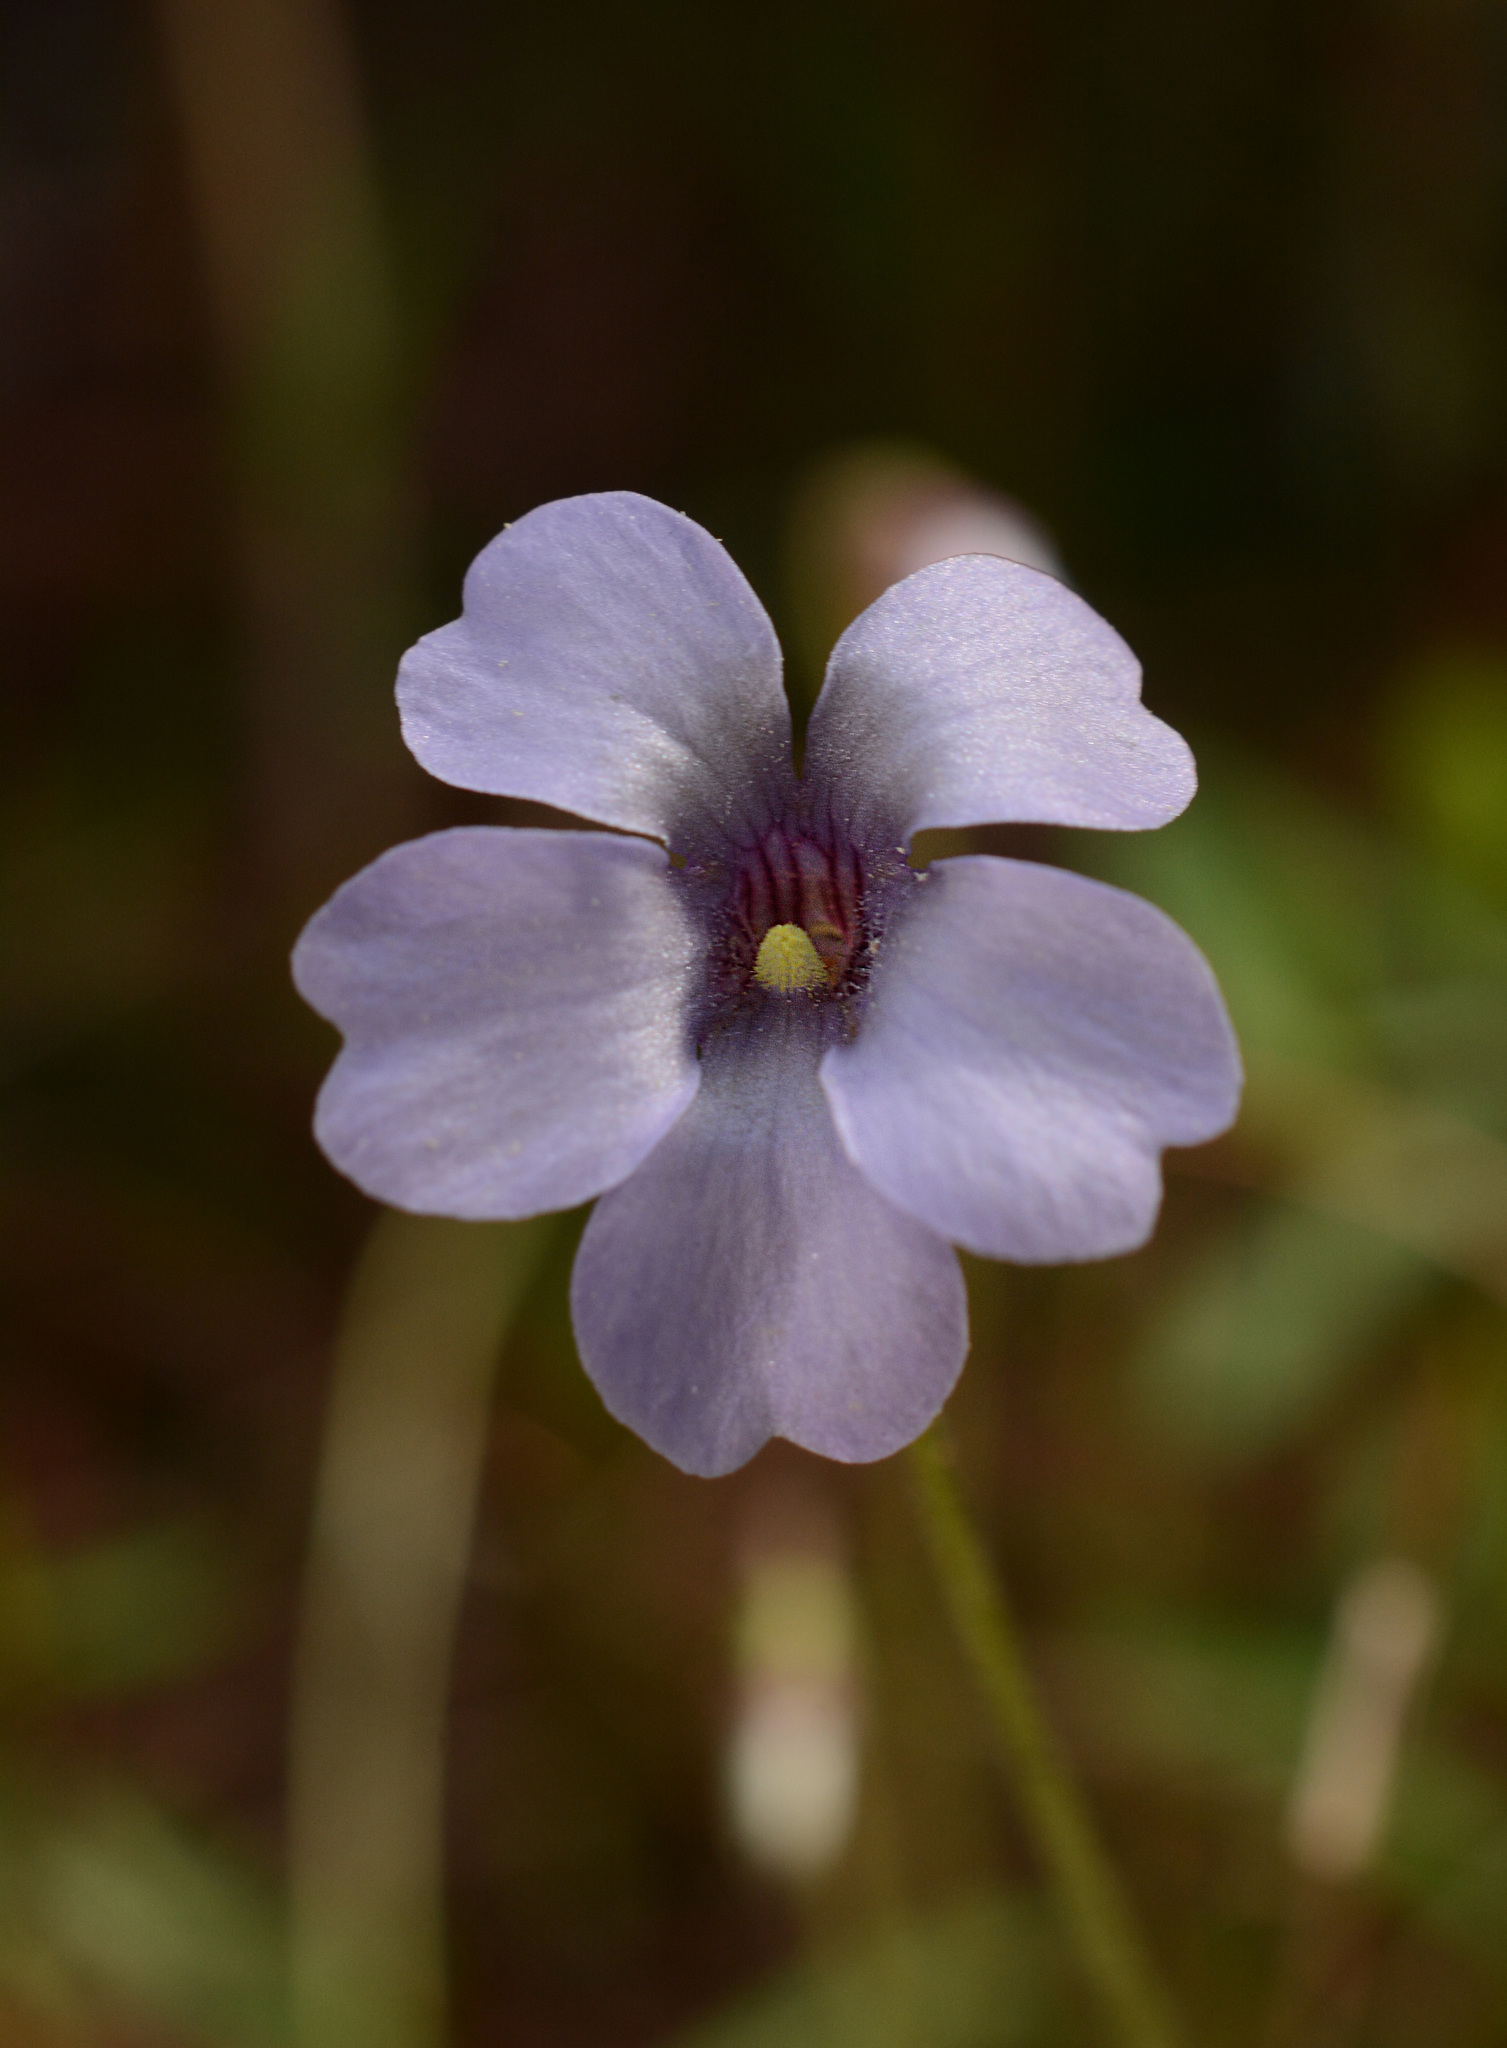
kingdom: Plantae
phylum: Tracheophyta
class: Magnoliopsida
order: Lamiales
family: Lentibulariaceae
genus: Pinguicula
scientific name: Pinguicula pumila
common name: Small butterwort
